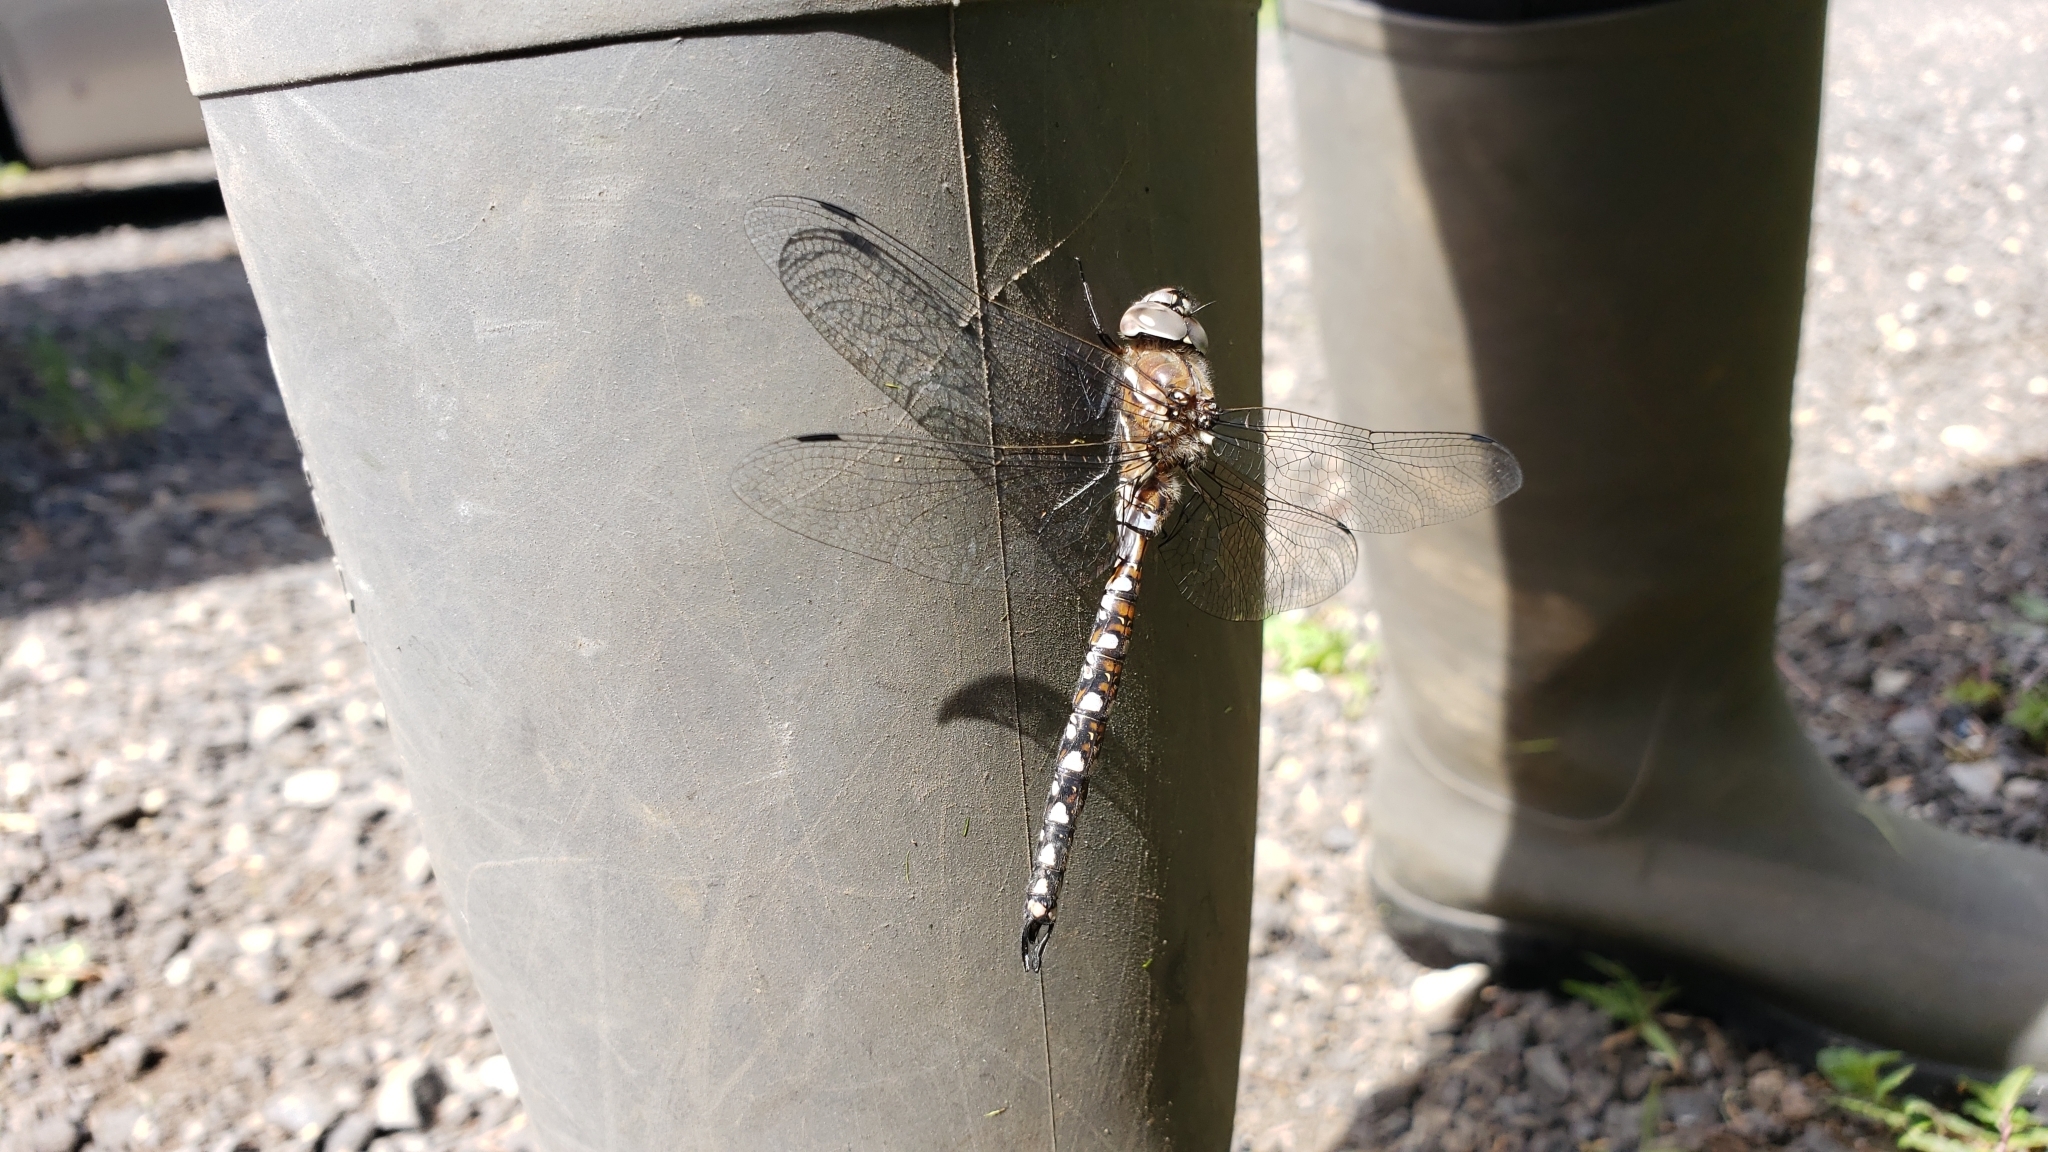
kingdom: Animalia
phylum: Arthropoda
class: Insecta
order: Odonata
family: Aeshnidae
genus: Rhionaeschna
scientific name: Rhionaeschna californica
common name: California darner
